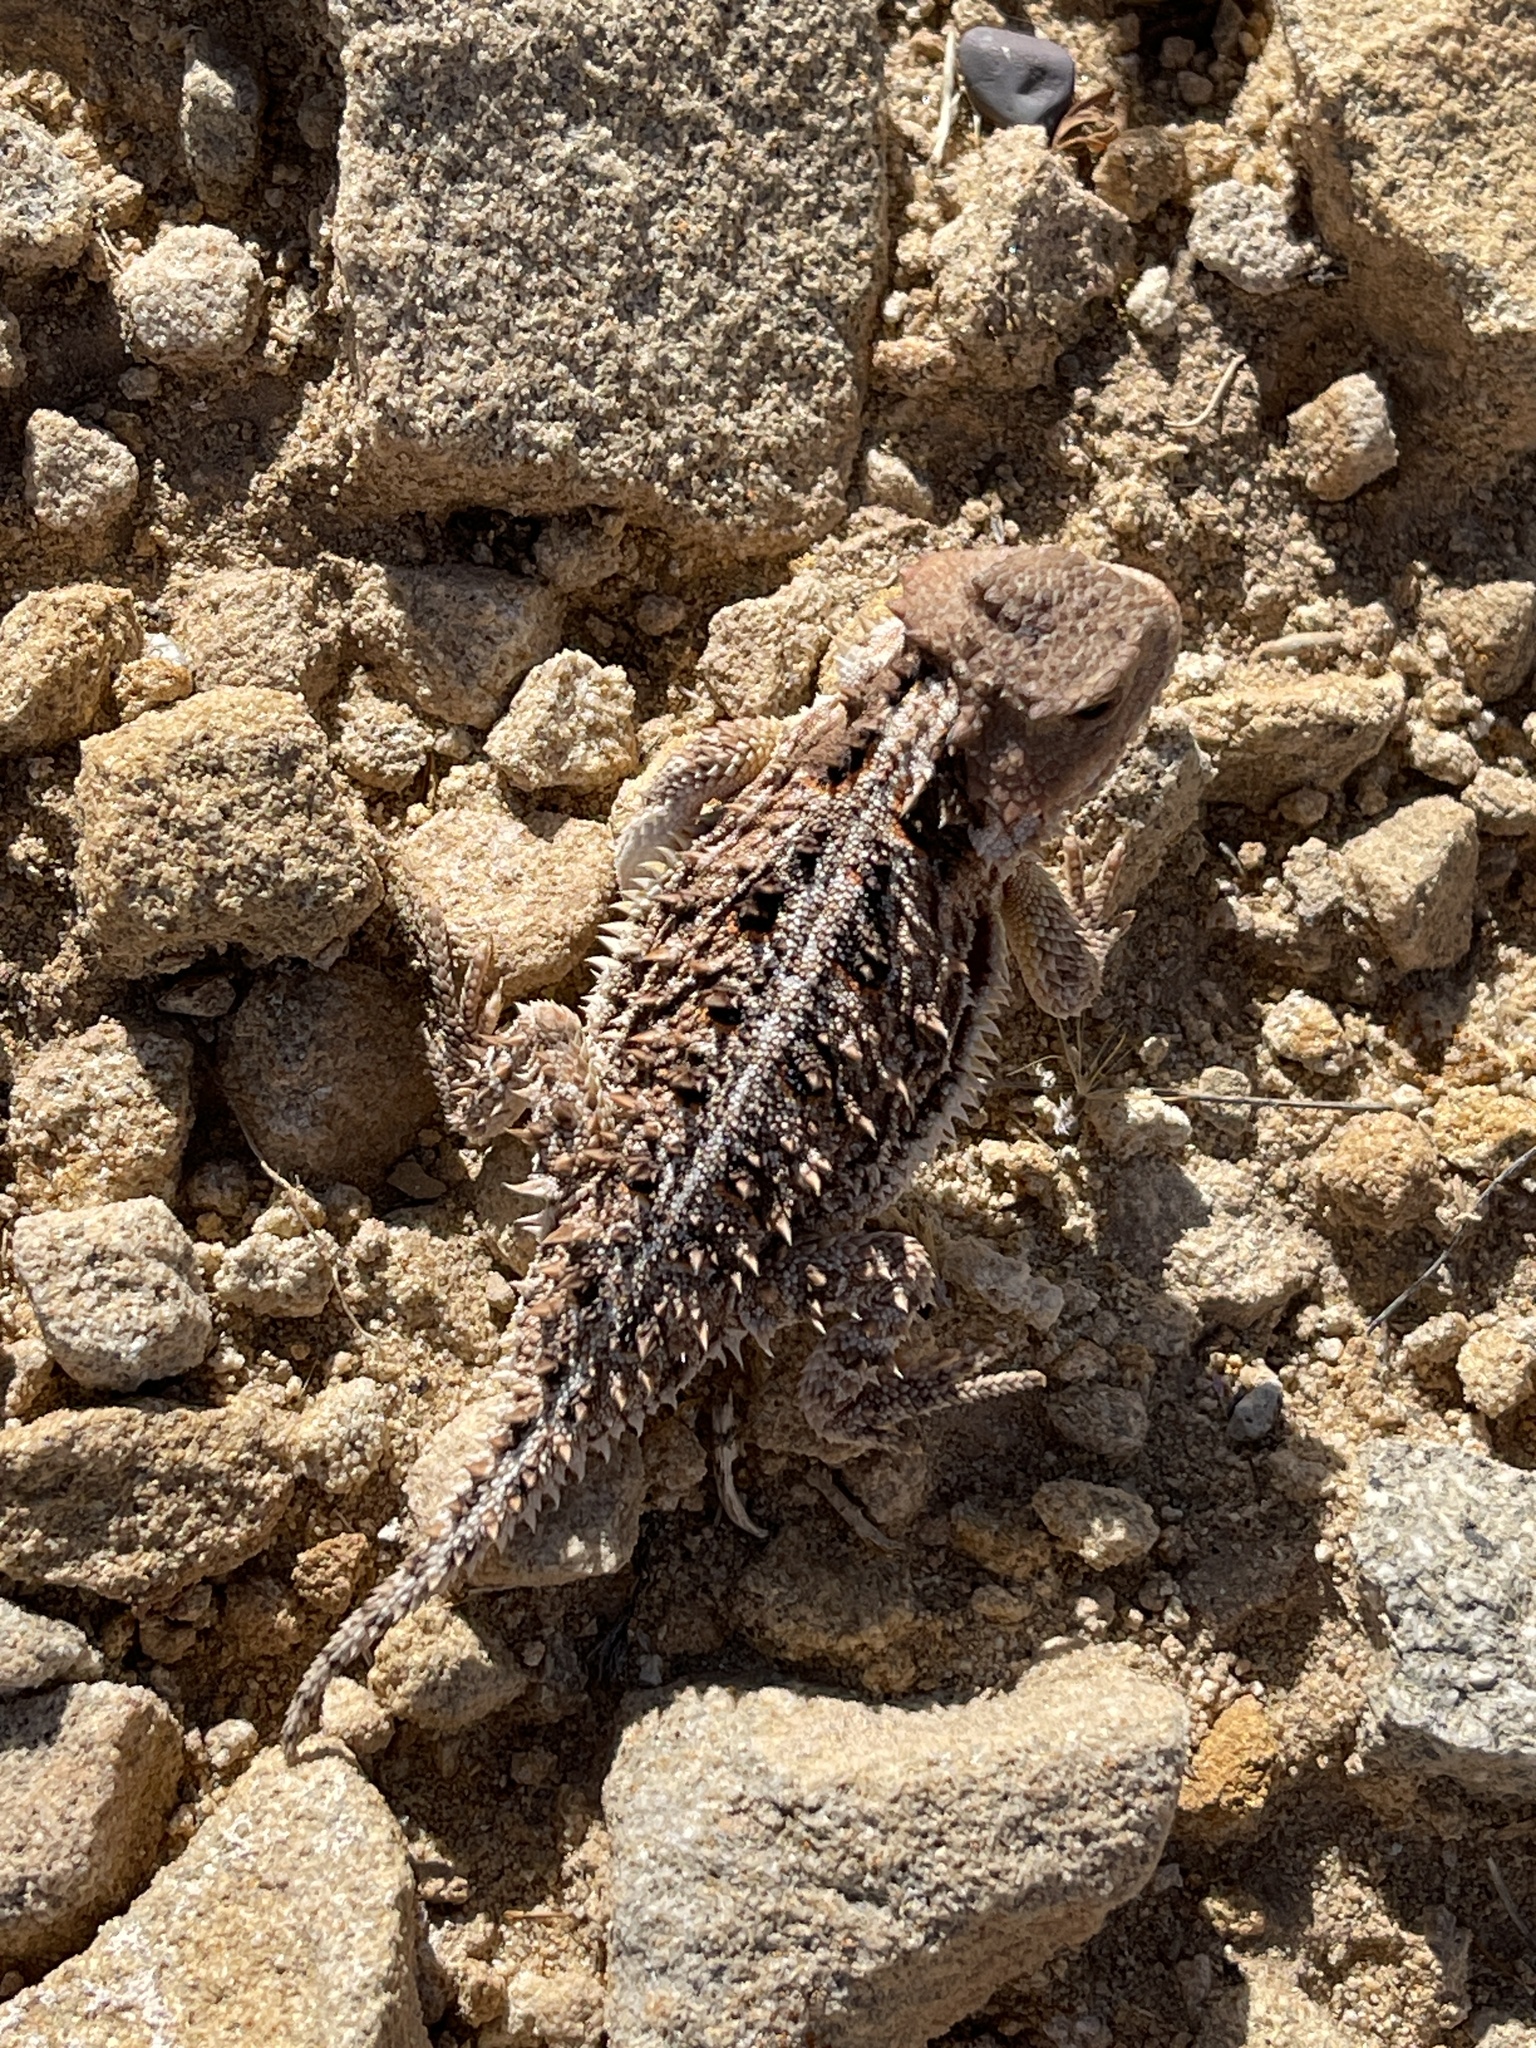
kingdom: Animalia
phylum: Chordata
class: Squamata
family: Phrynosomatidae
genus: Phrynosoma
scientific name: Phrynosoma hernandesi
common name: Greater short-horned lizard
